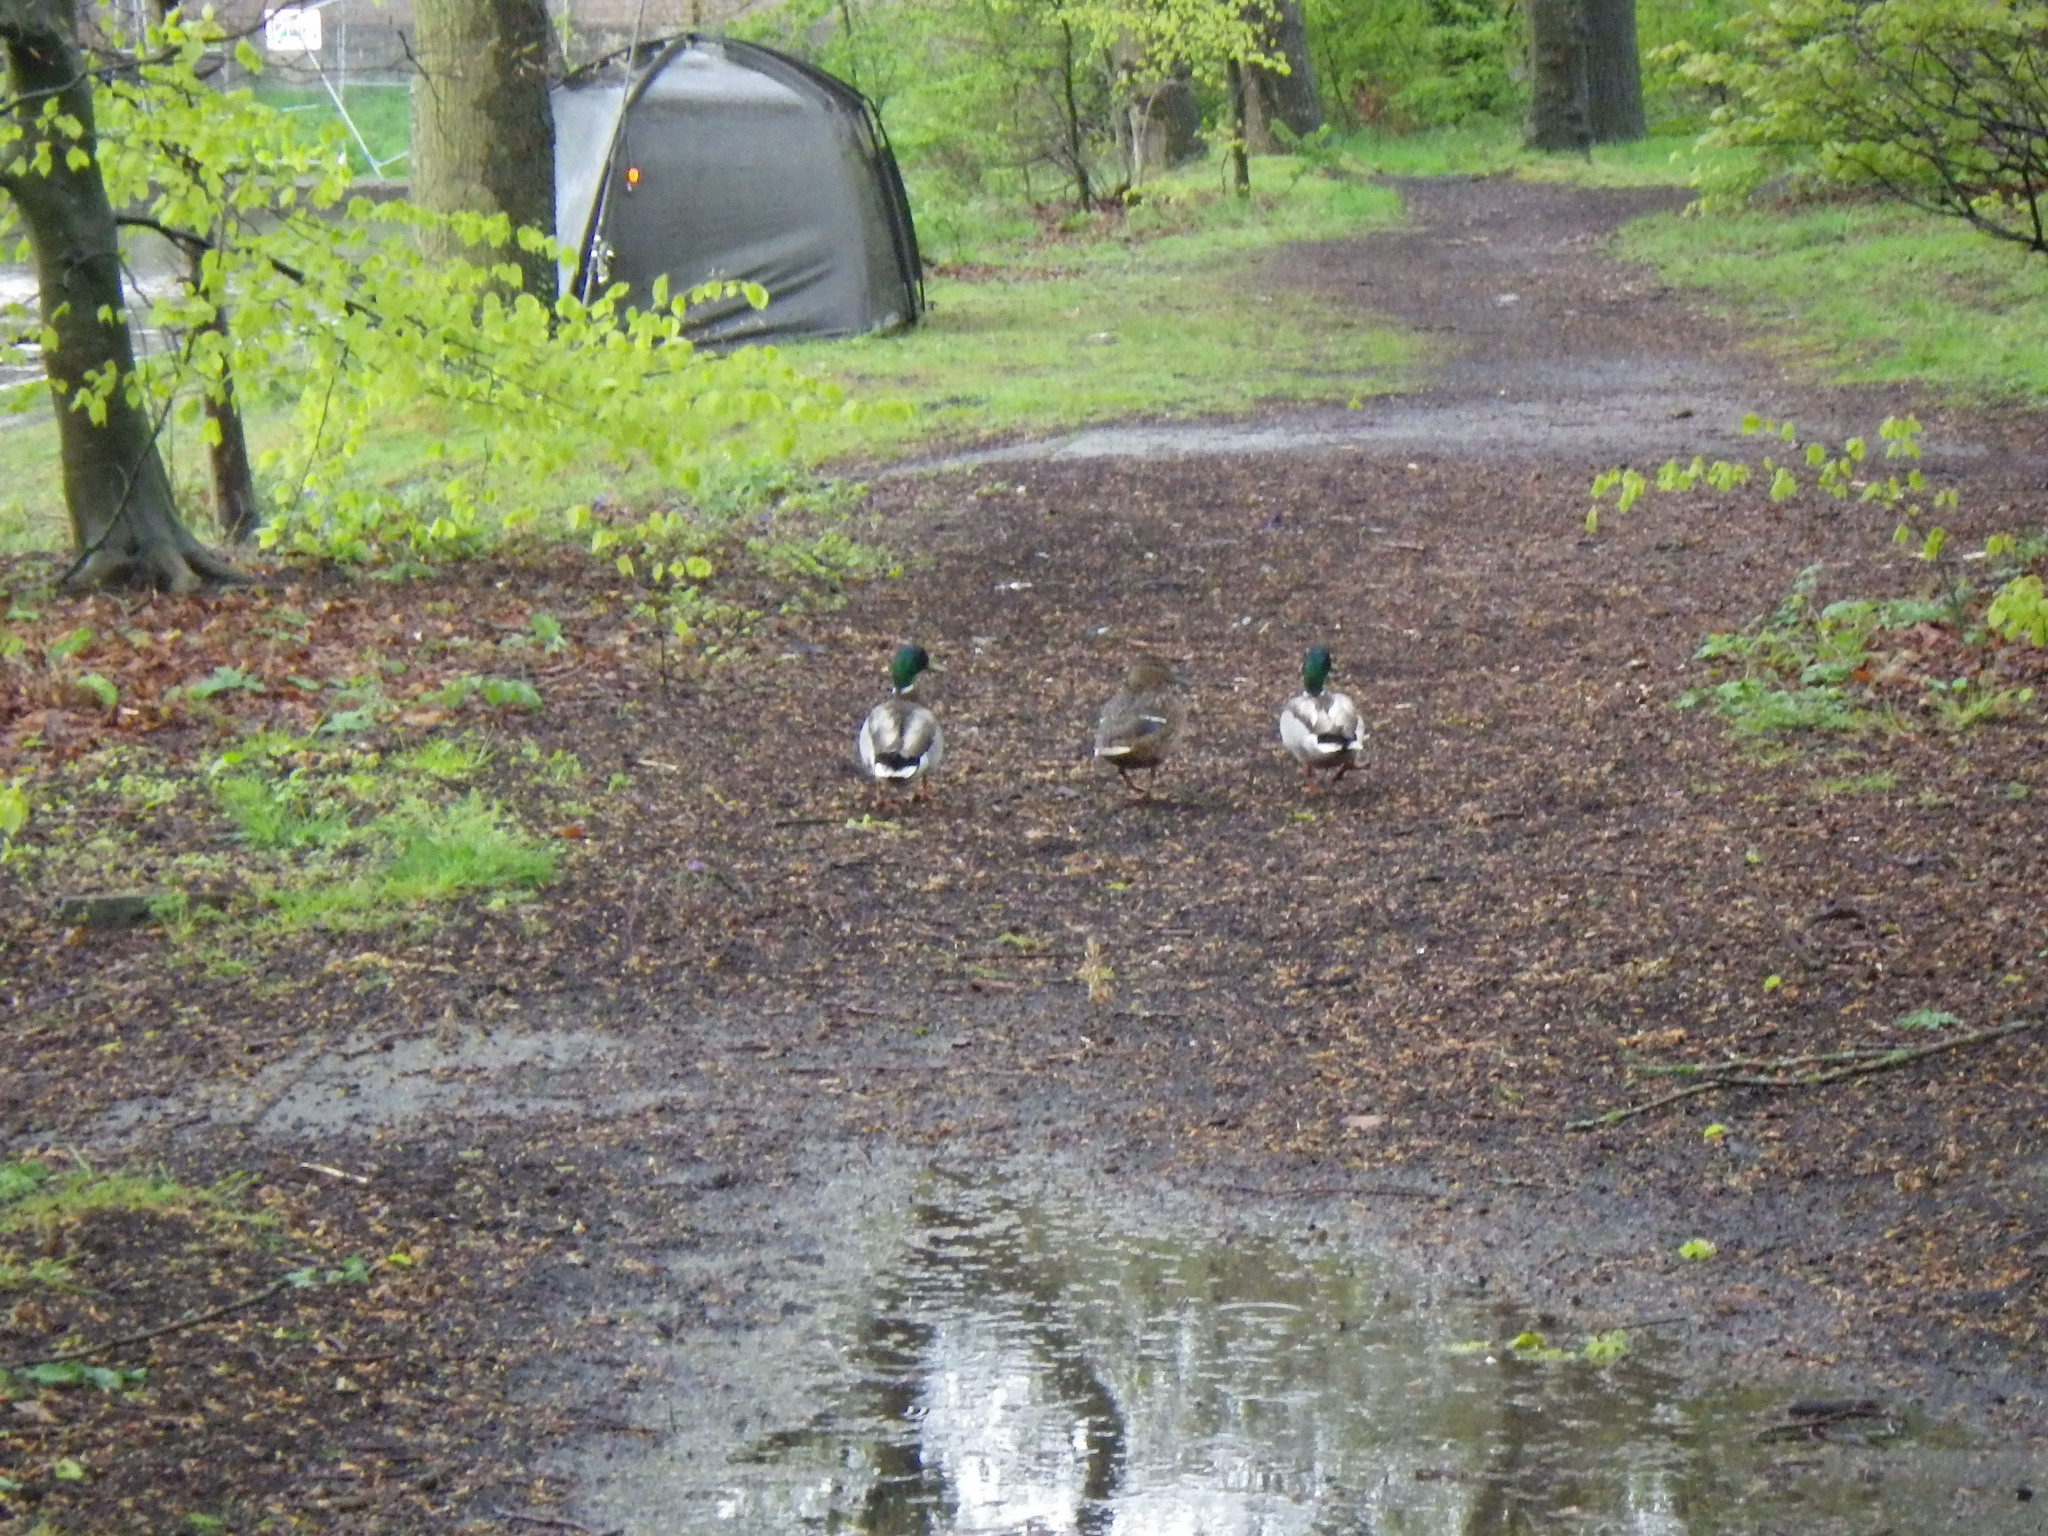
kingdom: Animalia
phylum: Chordata
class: Aves
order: Anseriformes
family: Anatidae
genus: Anas
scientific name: Anas platyrhynchos
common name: Mallard
